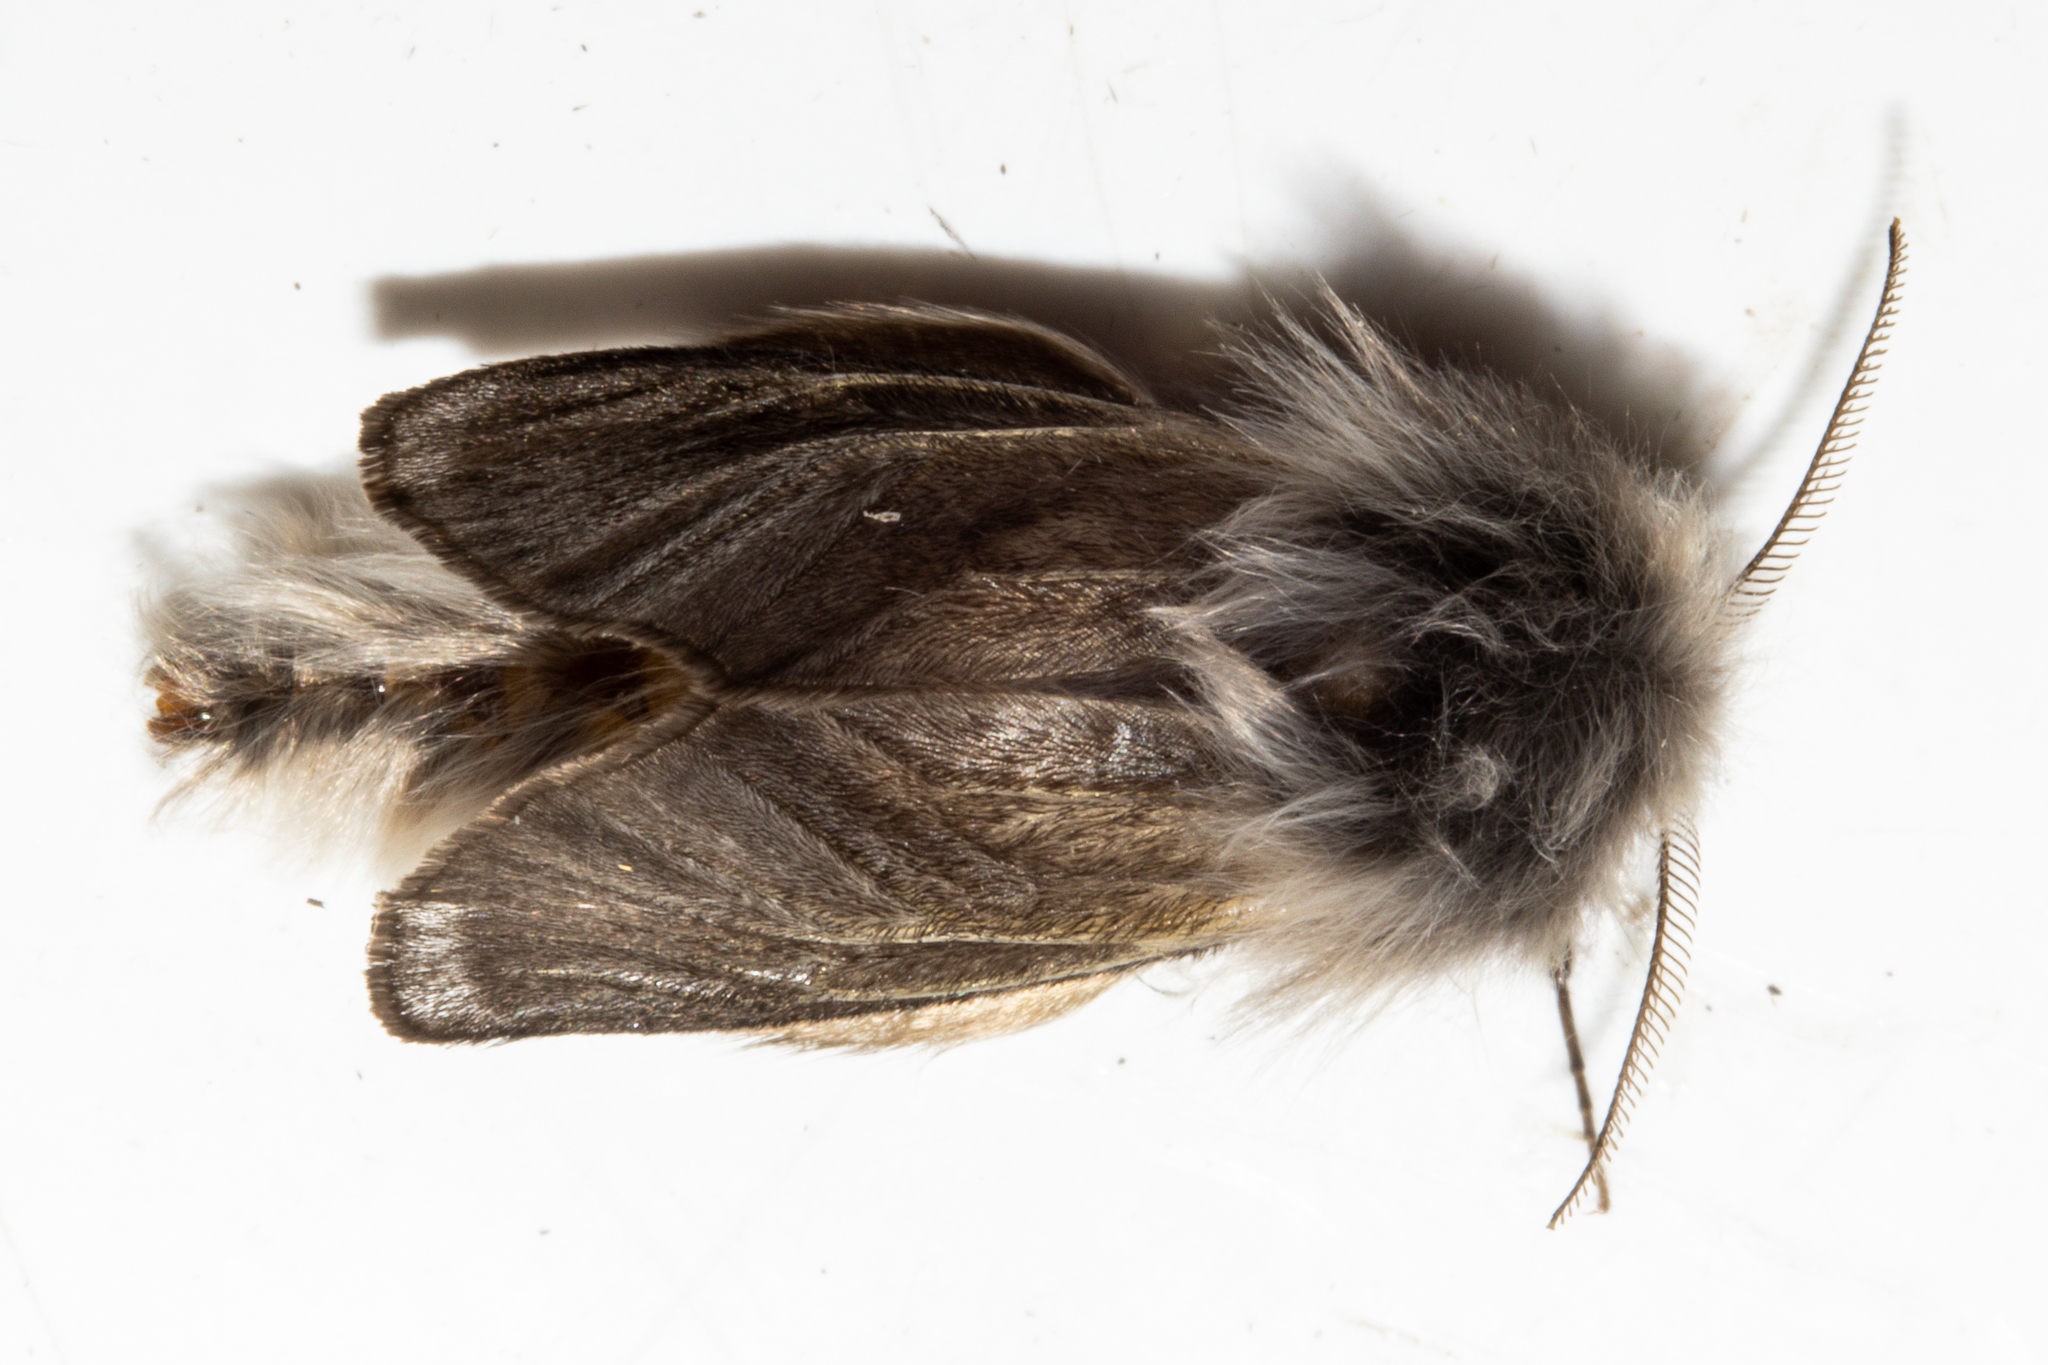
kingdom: Animalia
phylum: Arthropoda
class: Insecta
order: Lepidoptera
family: Psychidae
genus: Orophora
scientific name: Orophora unicolor
